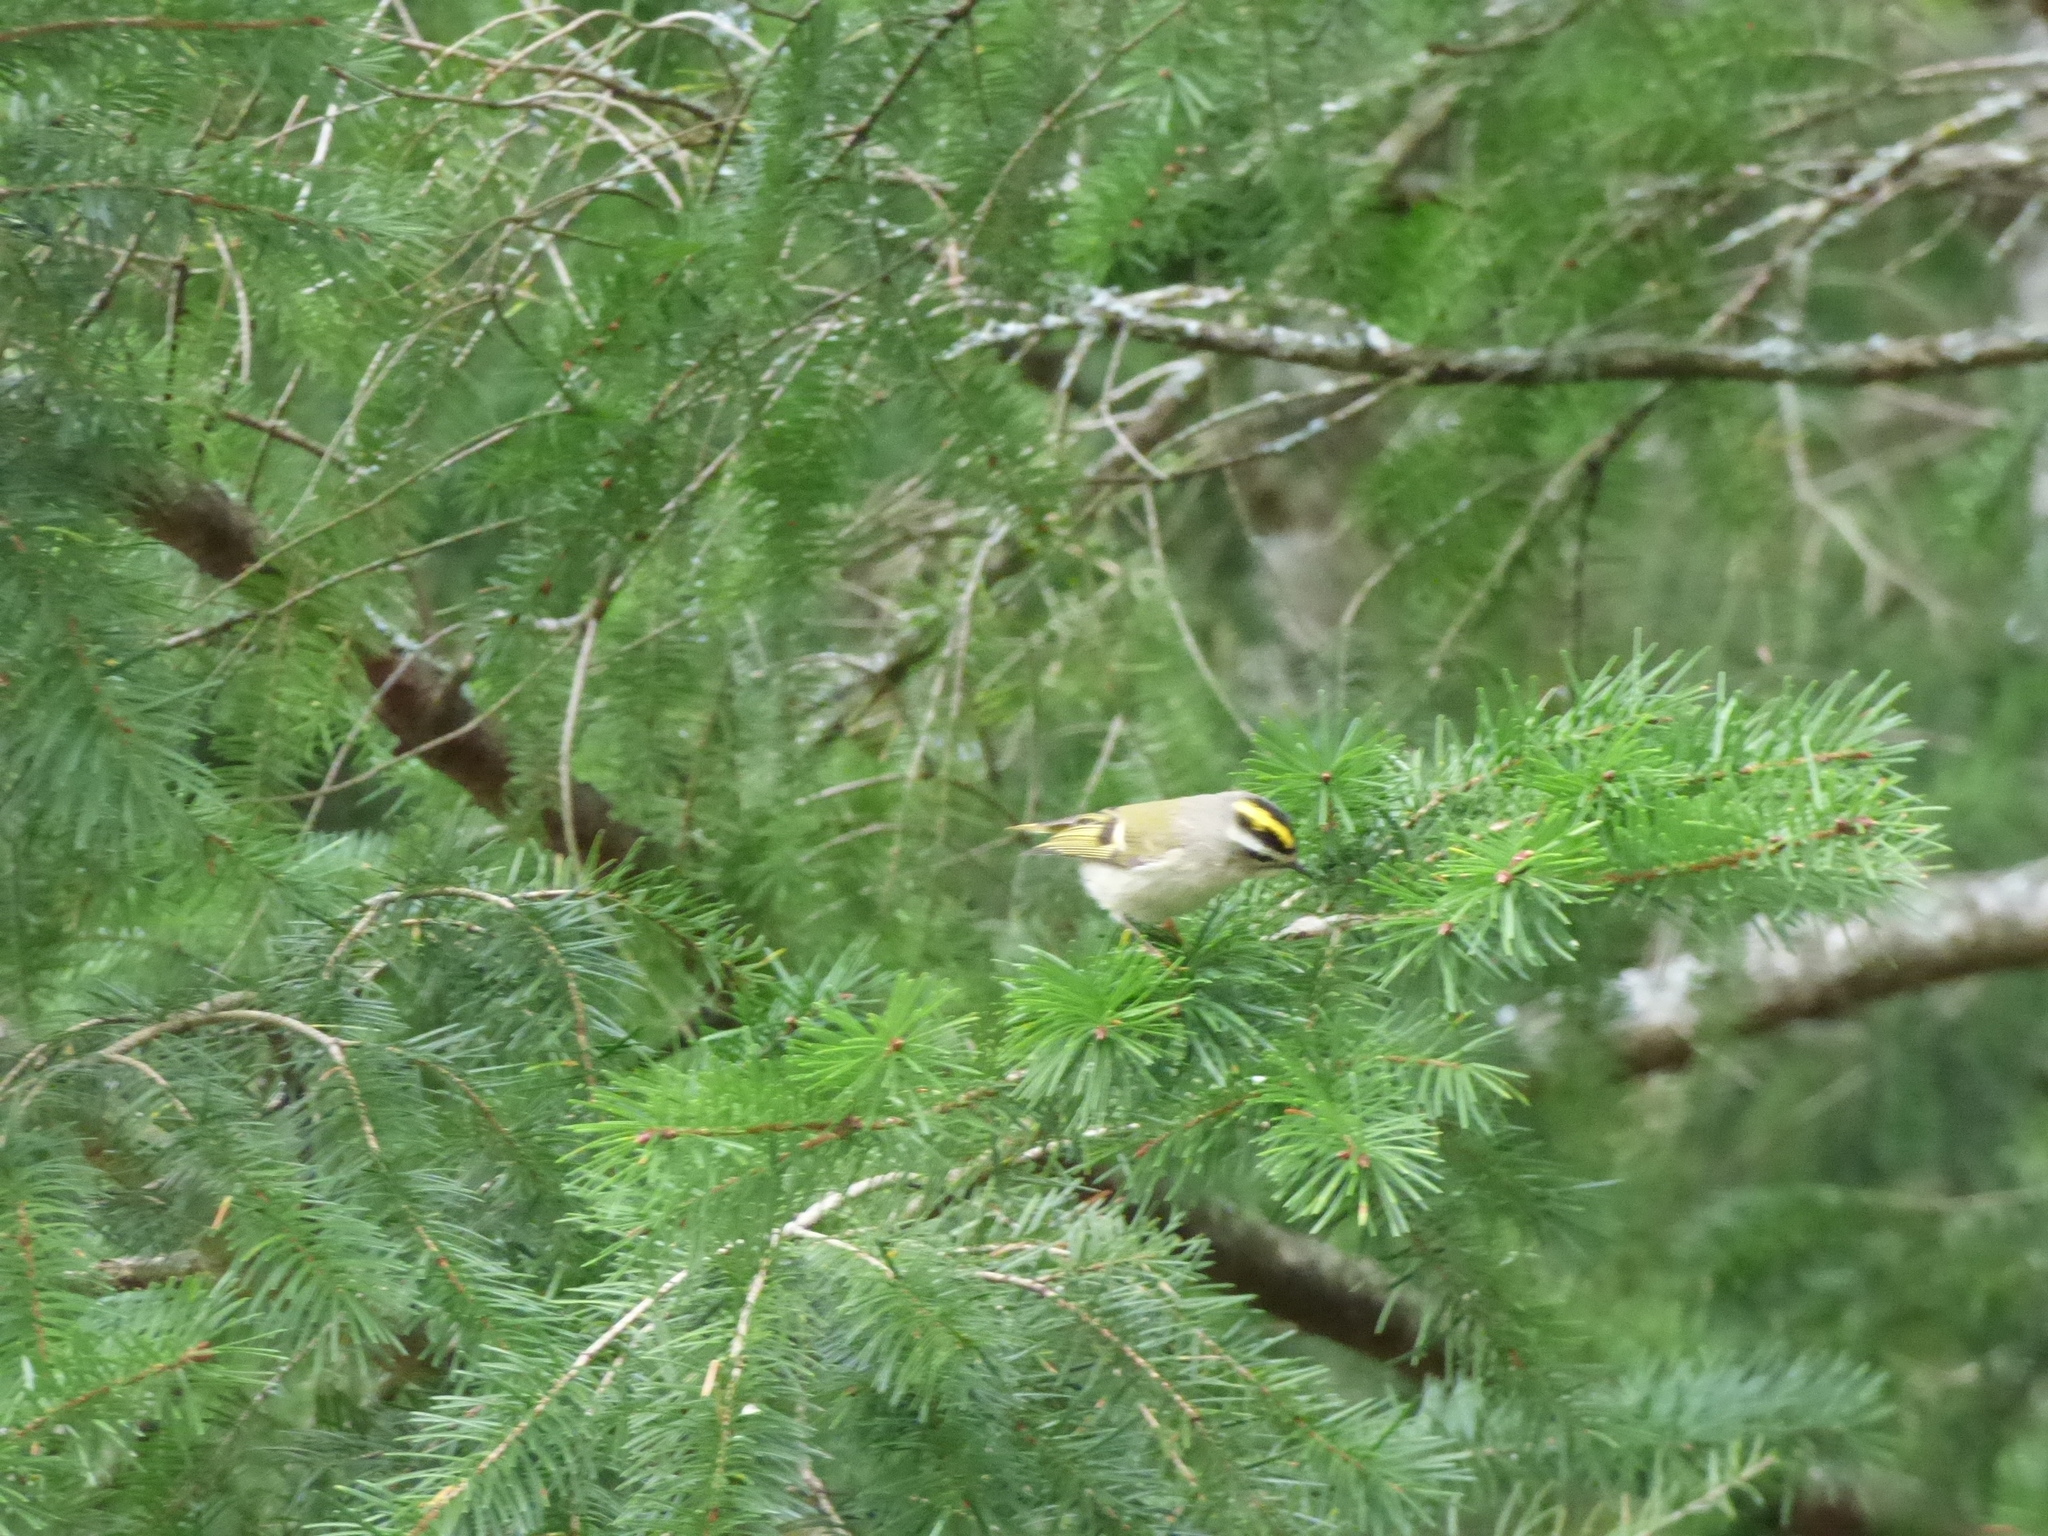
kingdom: Animalia
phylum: Chordata
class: Aves
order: Passeriformes
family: Regulidae
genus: Regulus
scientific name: Regulus satrapa
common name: Golden-crowned kinglet
